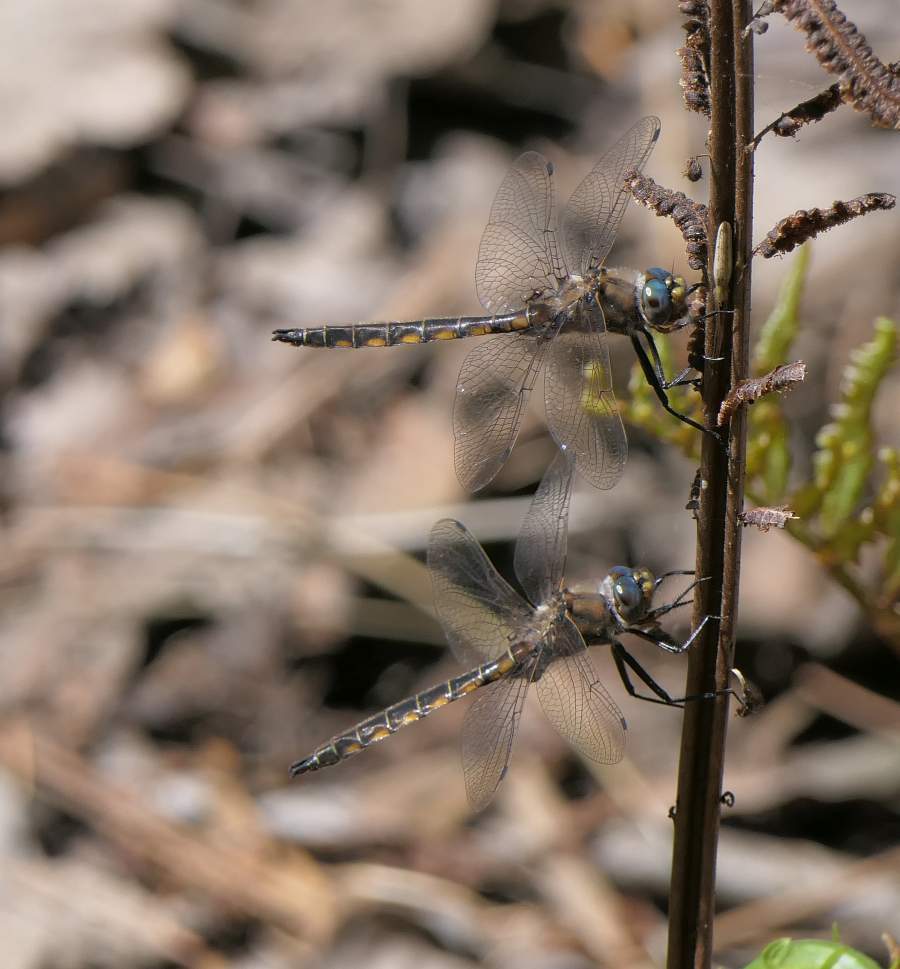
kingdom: Animalia
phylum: Arthropoda
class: Insecta
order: Odonata
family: Corduliidae
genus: Epitheca
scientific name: Epitheca canis
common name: Beaverpond baskettail
